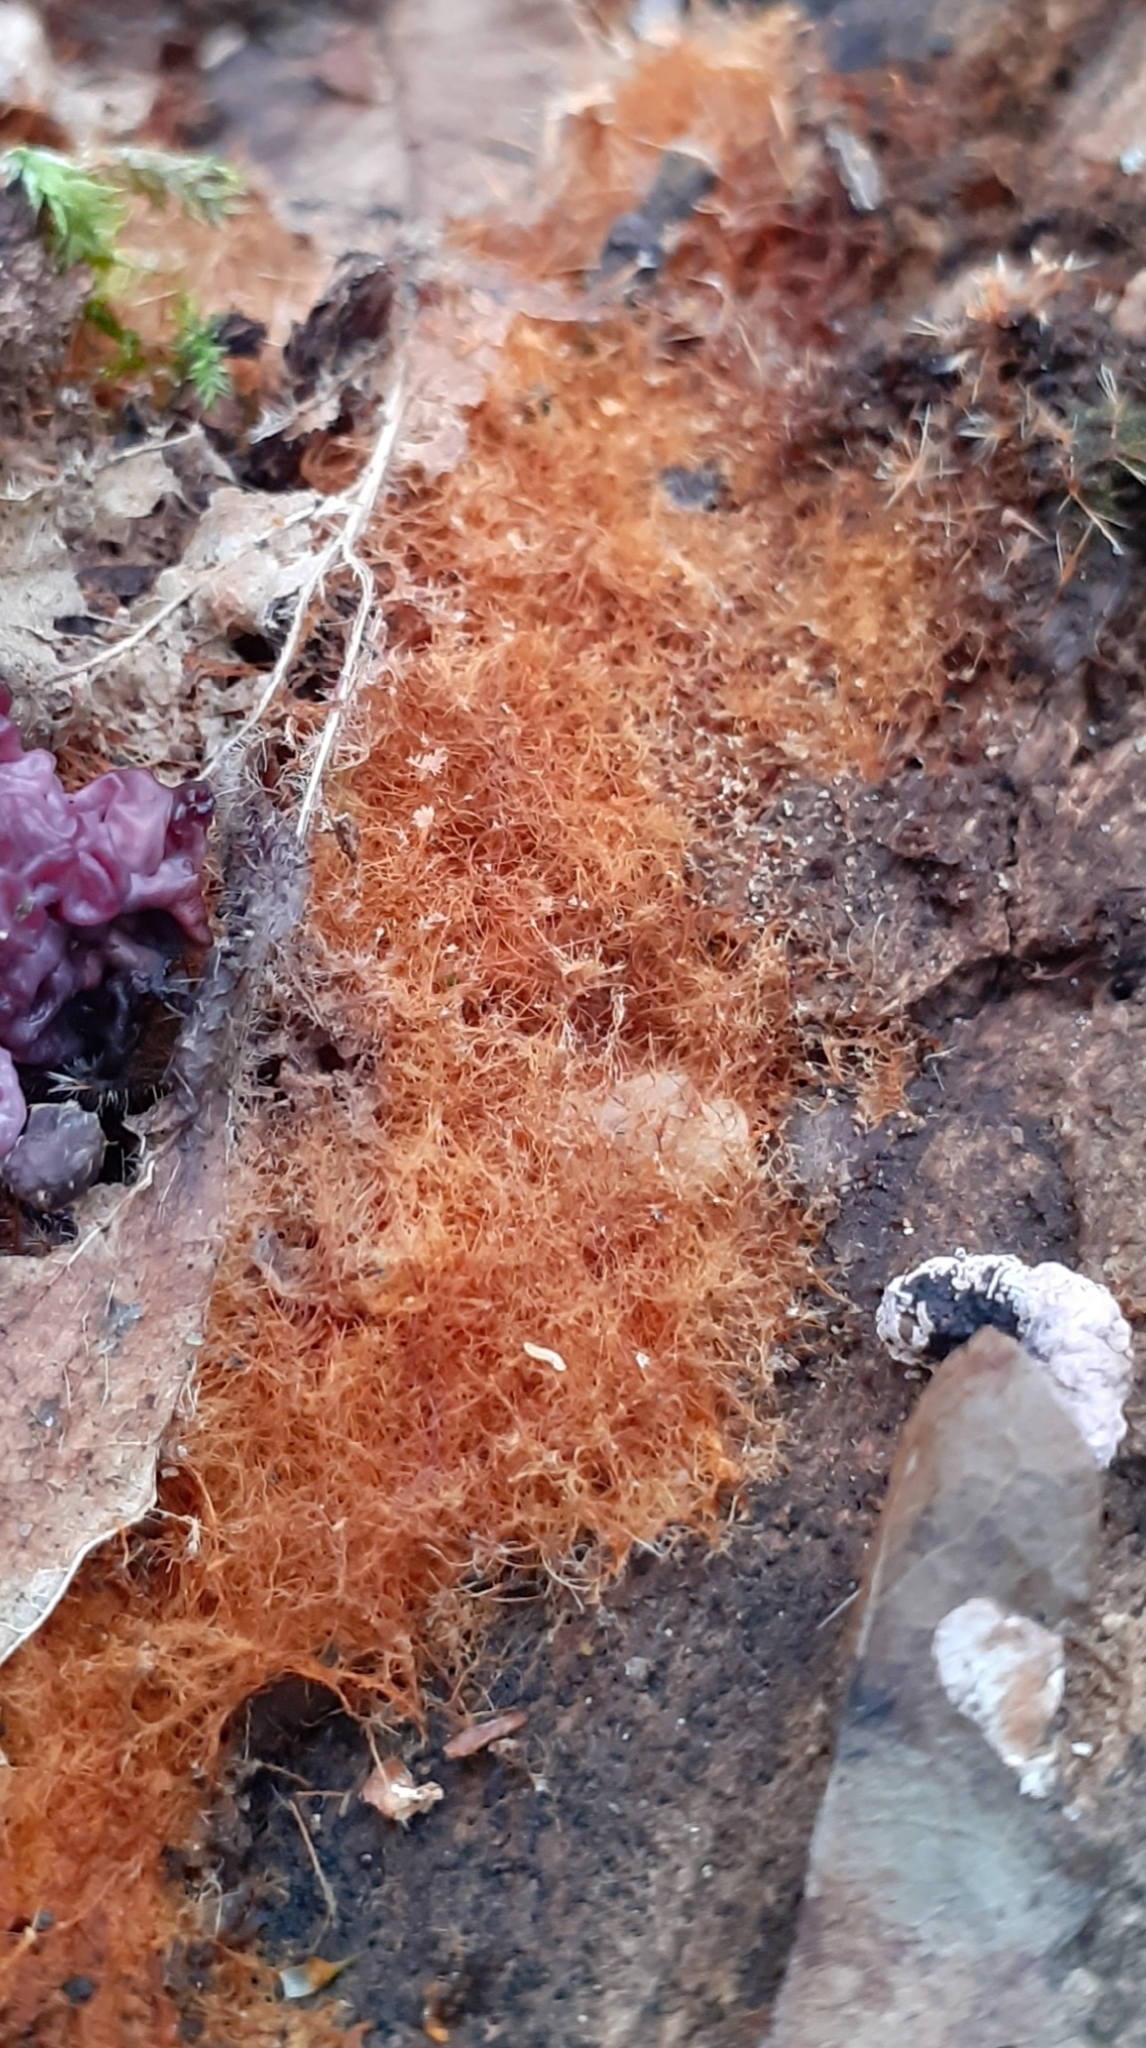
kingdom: Fungi
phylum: Basidiomycota
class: Agaricomycetes
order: Agaricales
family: Psathyrellaceae
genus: Coprinellus
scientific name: Coprinellus
